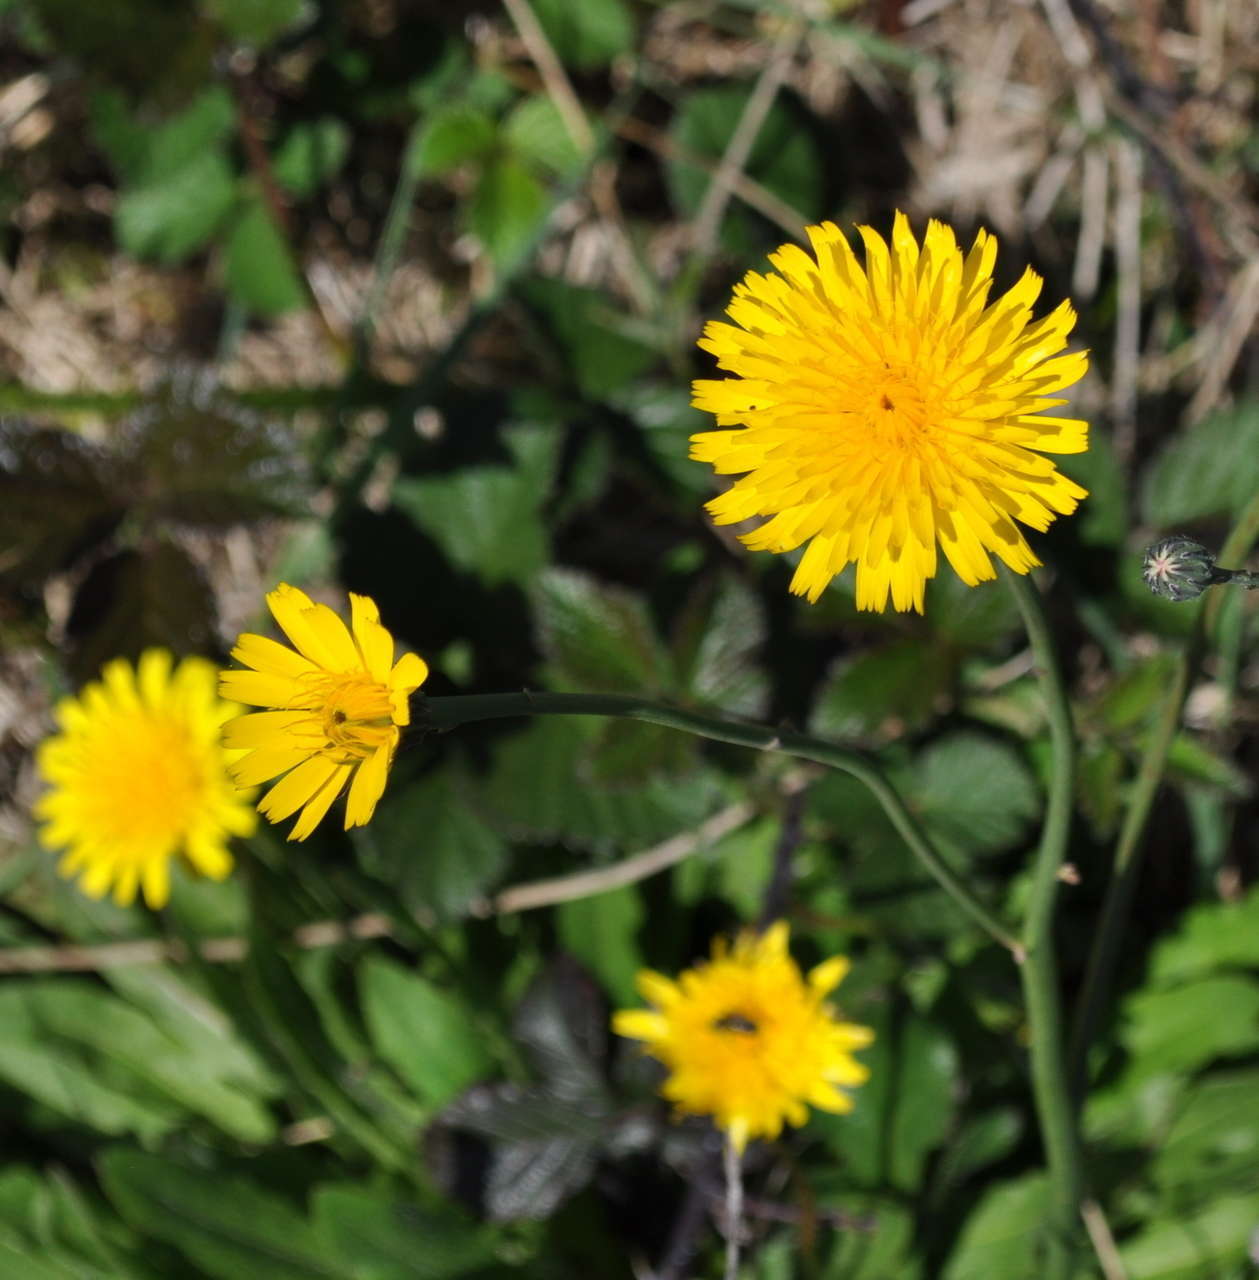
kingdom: Plantae
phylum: Tracheophyta
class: Magnoliopsida
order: Asterales
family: Asteraceae
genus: Hypochaeris
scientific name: Hypochaeris radicata
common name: Flatweed
